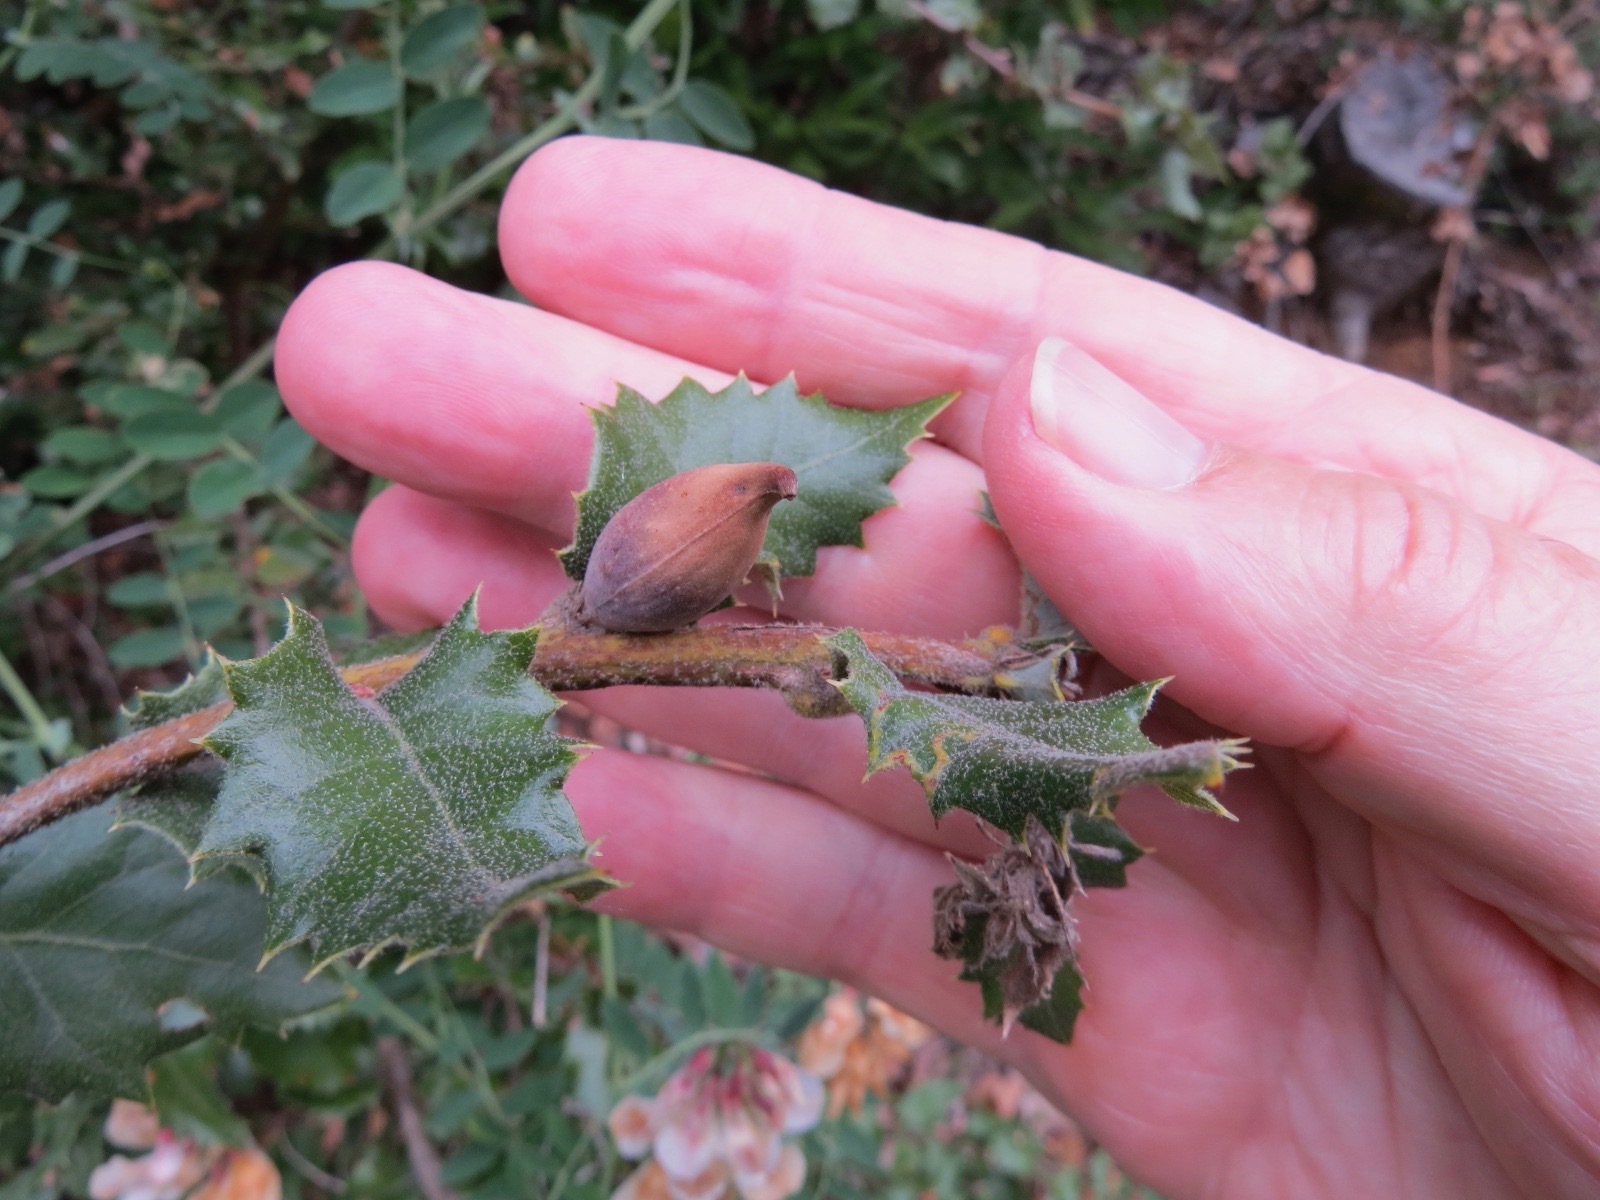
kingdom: Animalia
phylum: Arthropoda
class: Insecta
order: Hymenoptera
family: Cynipidae
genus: Heteroecus
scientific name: Heteroecus pacificus
